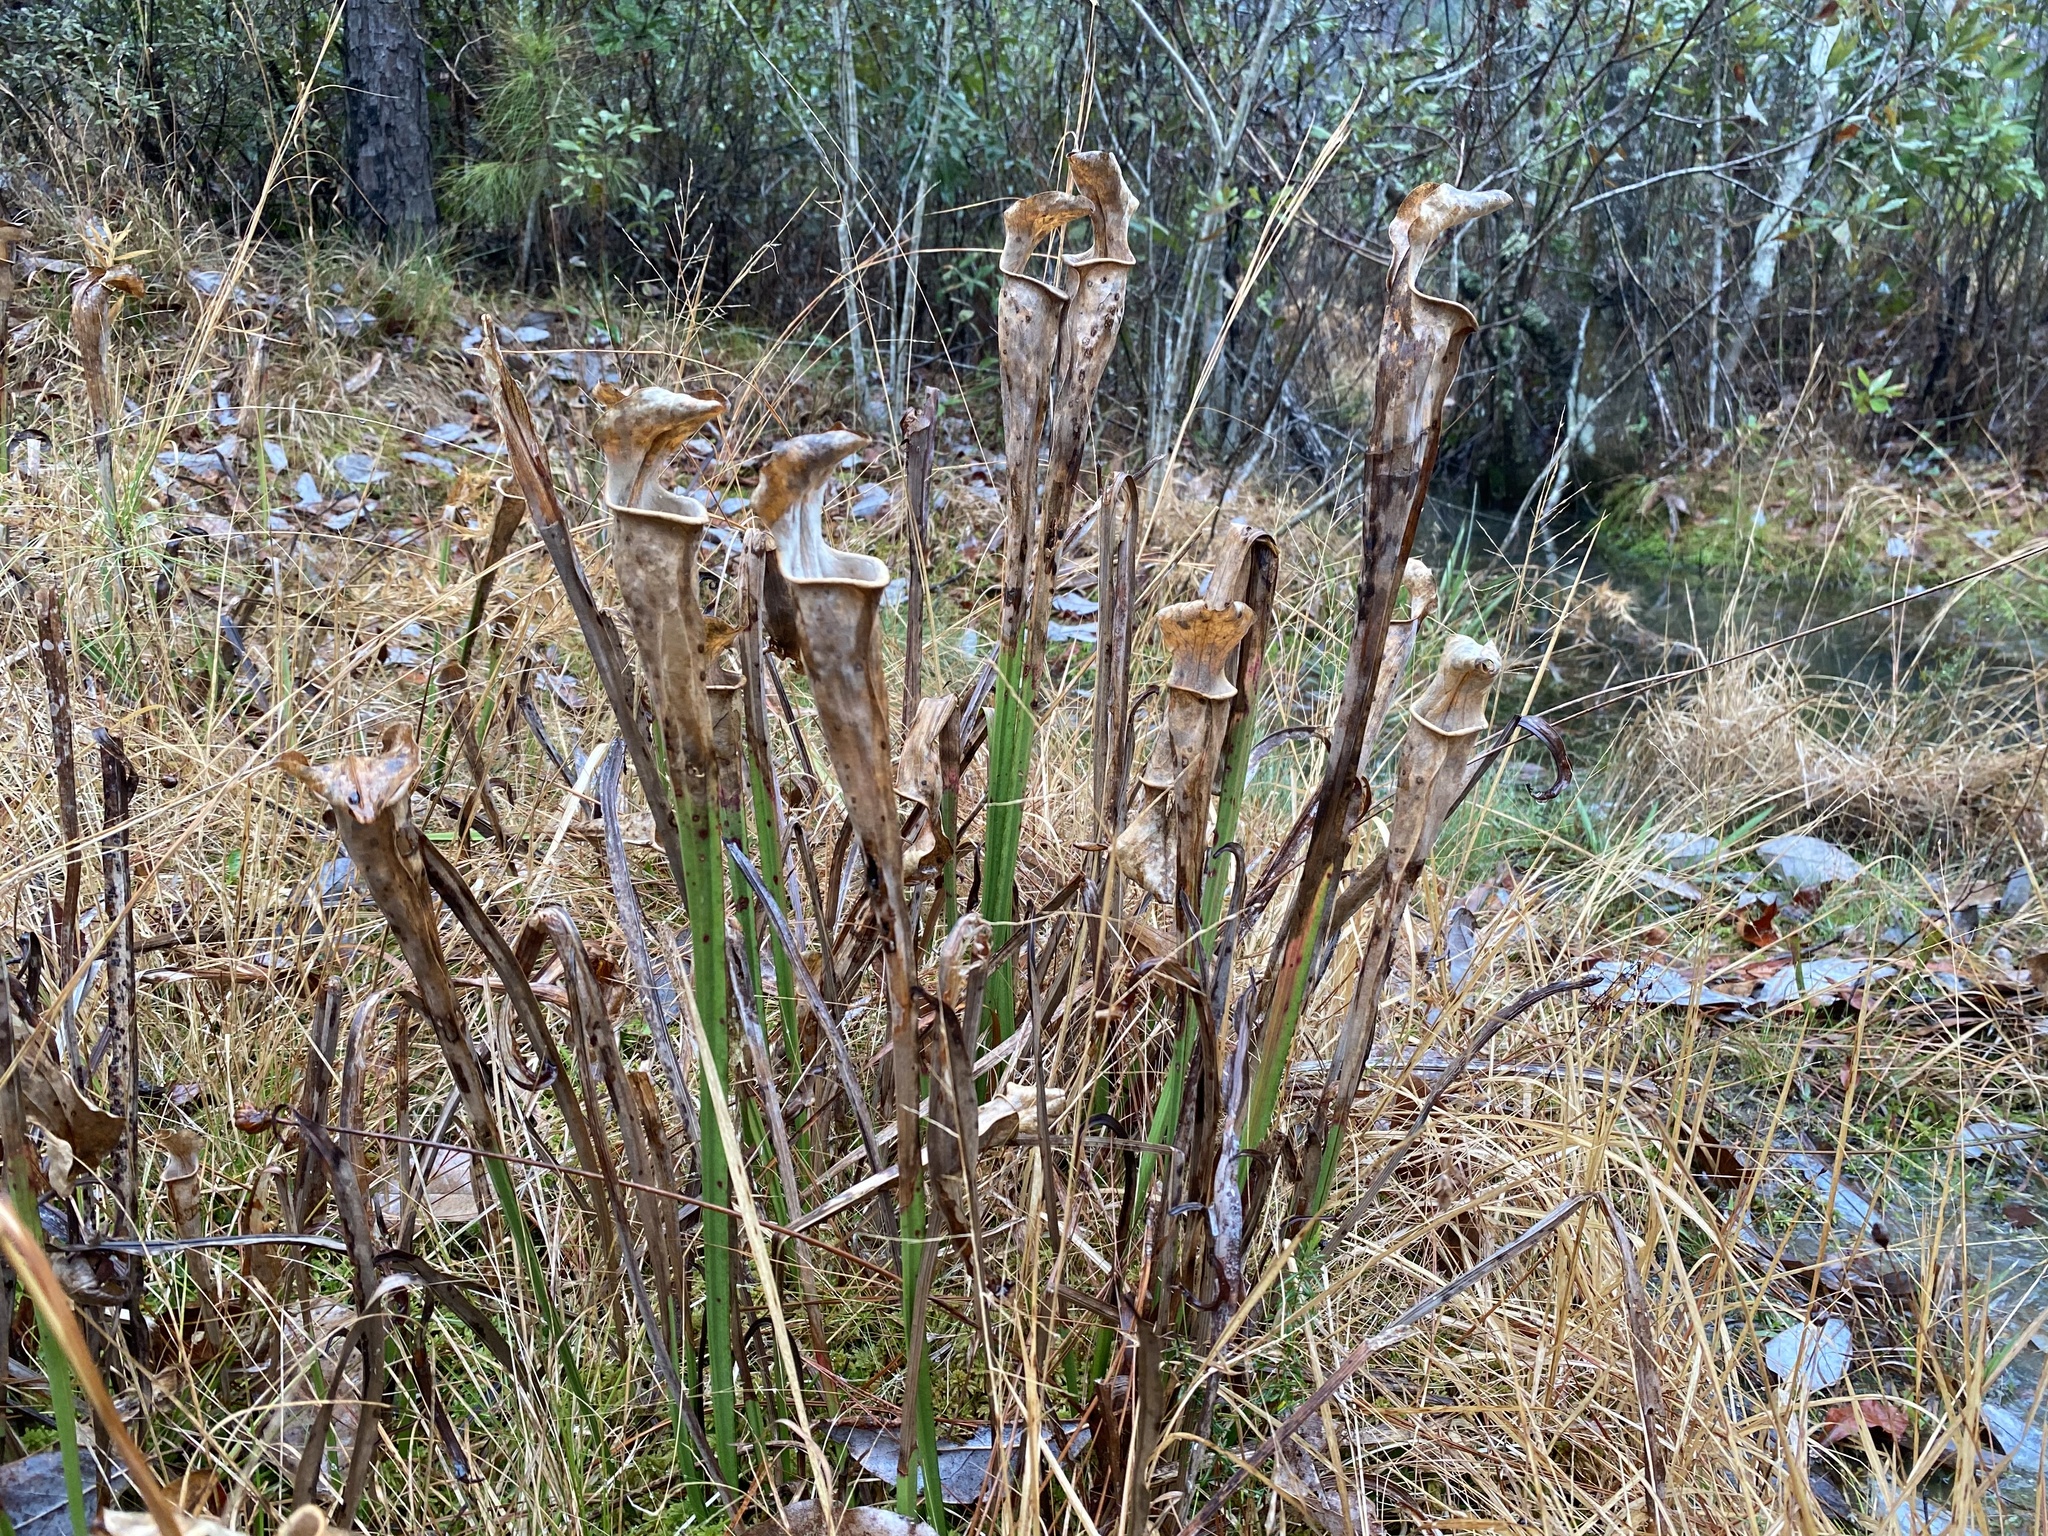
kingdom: Plantae
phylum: Tracheophyta
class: Magnoliopsida
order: Ericales
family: Sarraceniaceae
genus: Sarracenia
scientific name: Sarracenia alata
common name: Yellow trumpets
